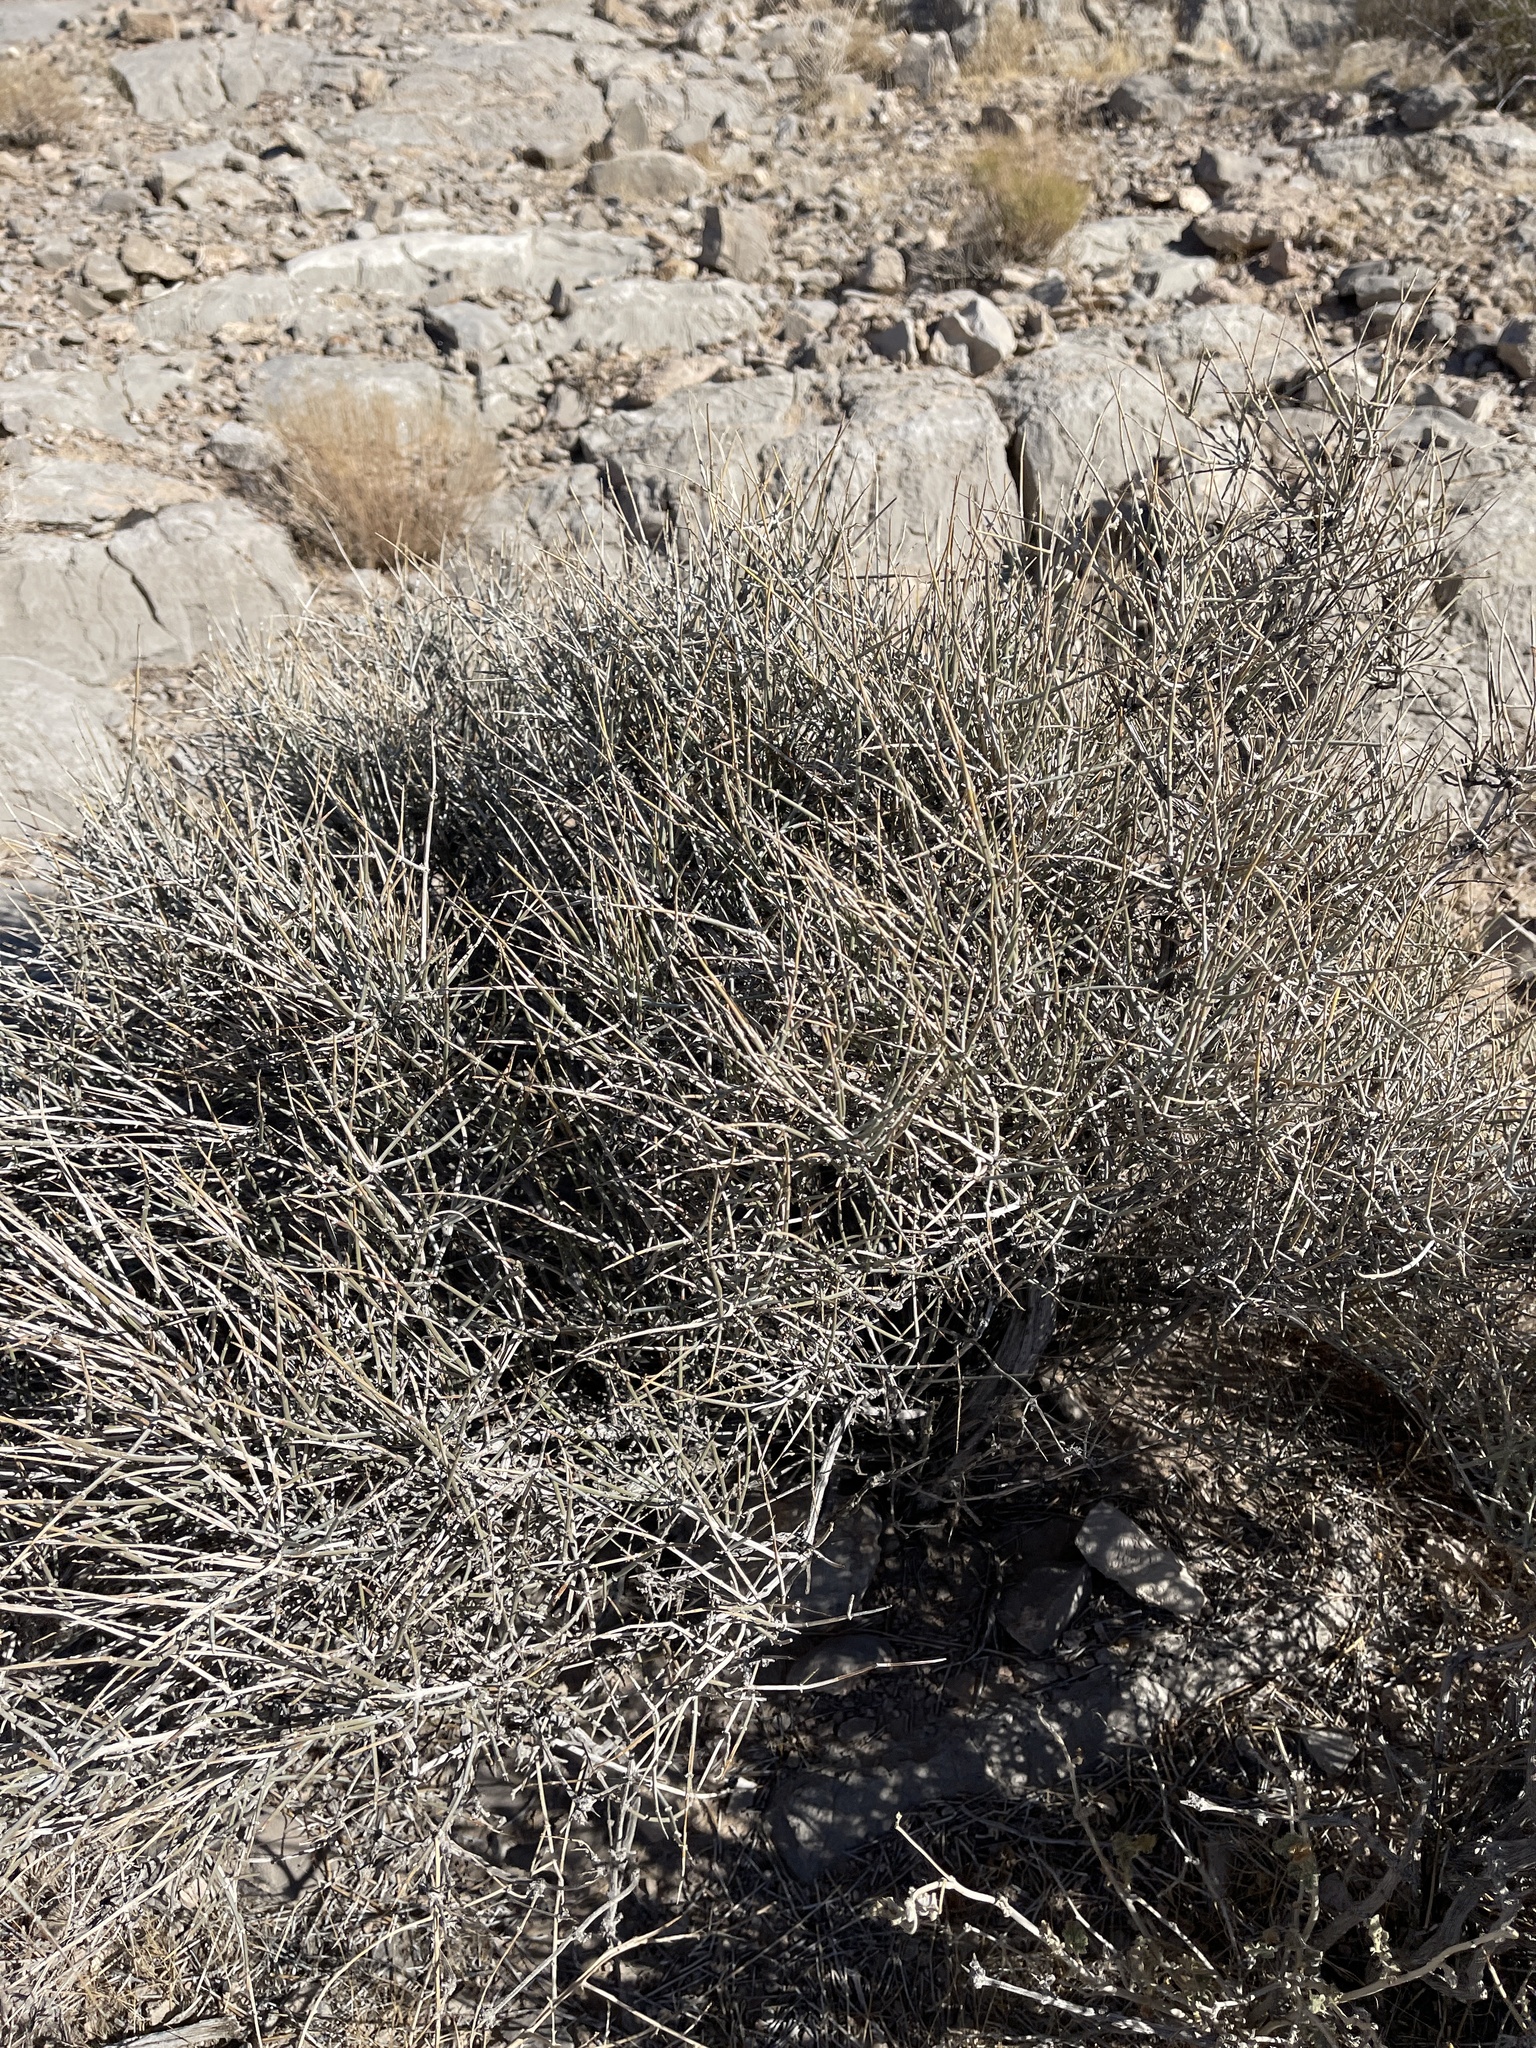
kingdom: Plantae
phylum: Tracheophyta
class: Gnetopsida
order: Ephedrales
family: Ephedraceae
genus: Ephedra
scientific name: Ephedra nevadensis
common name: Gray ephedra
